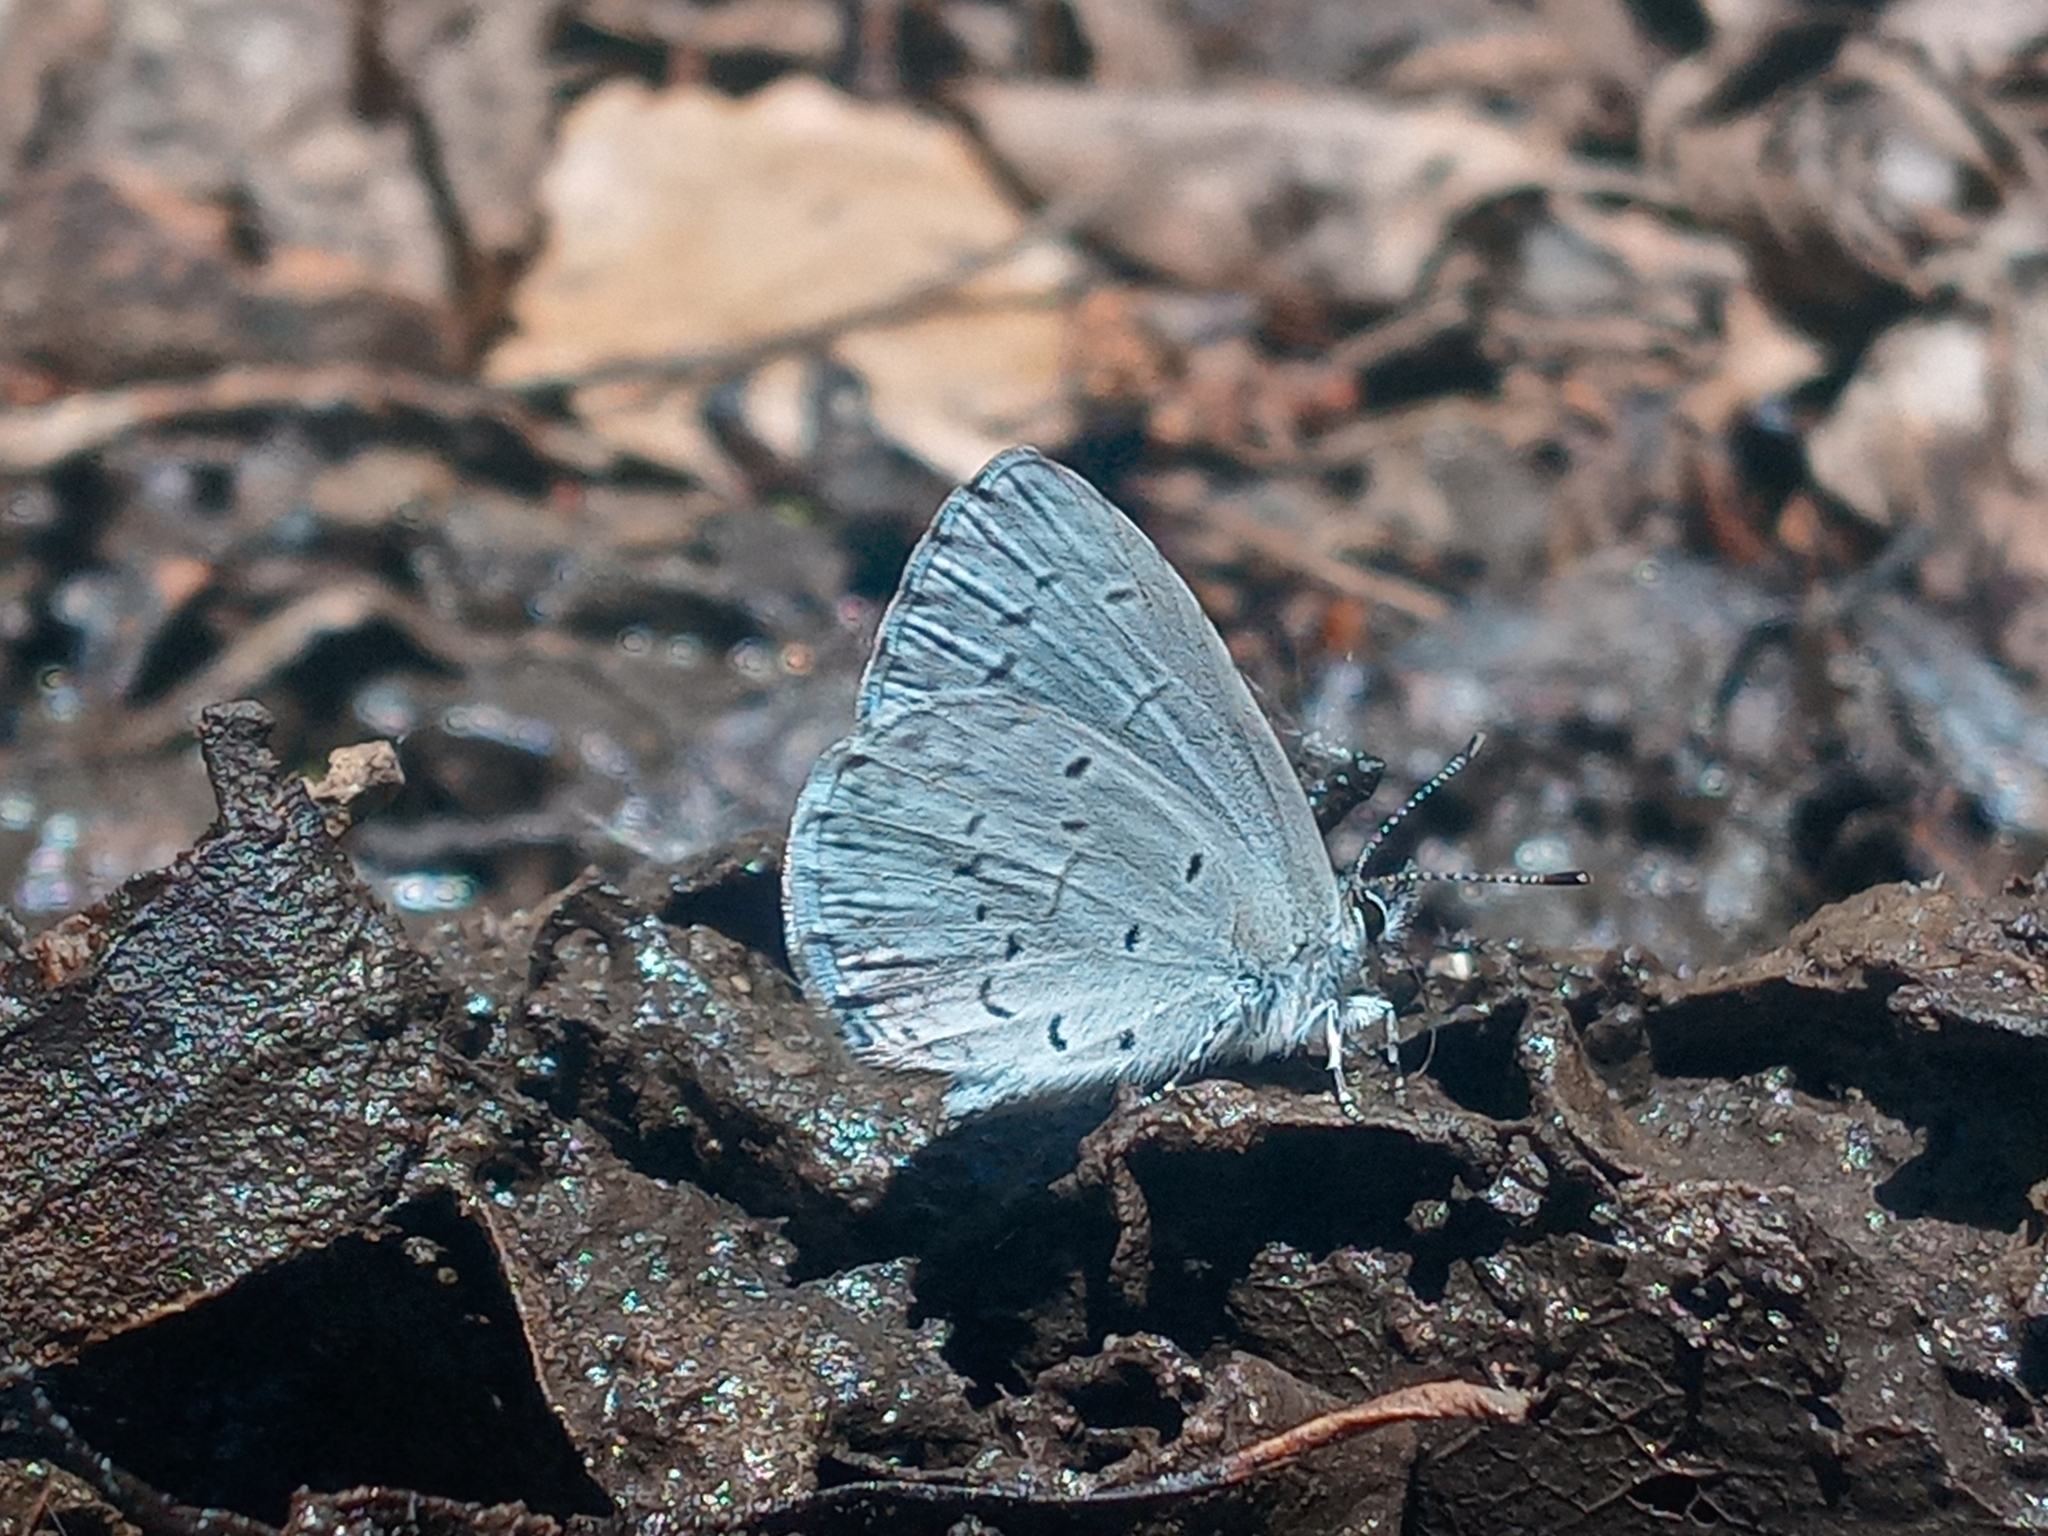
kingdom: Animalia
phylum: Arthropoda
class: Insecta
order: Lepidoptera
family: Lycaenidae
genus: Celastrina
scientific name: Celastrina ladon
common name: Spring azure
